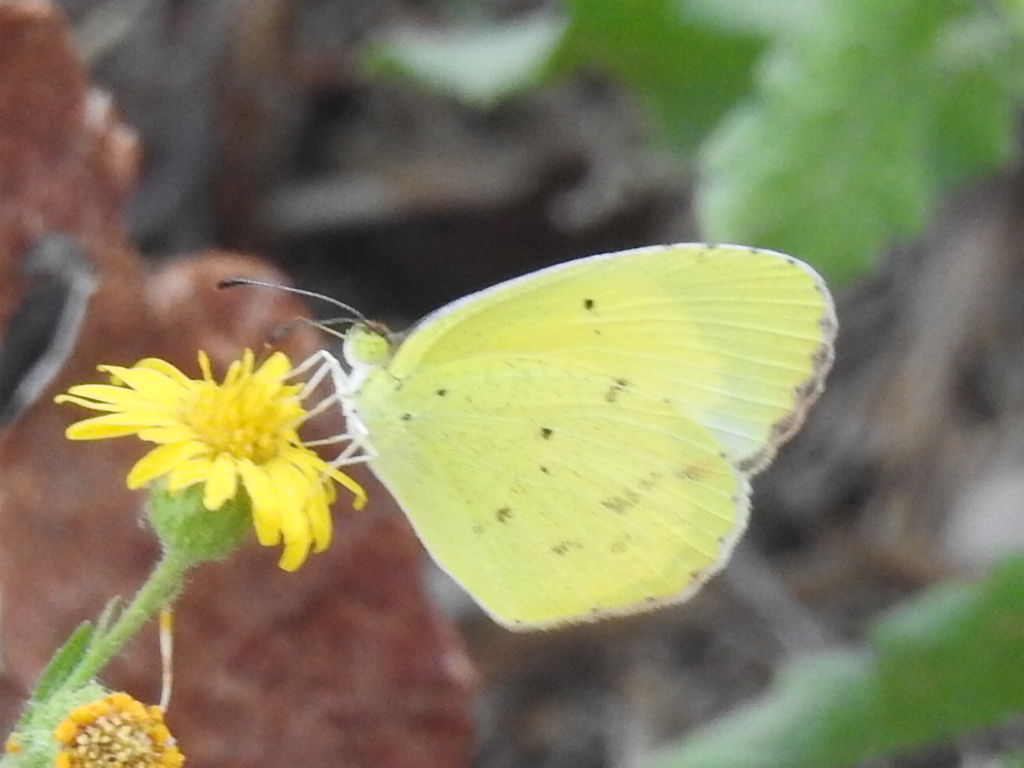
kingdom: Animalia
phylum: Arthropoda
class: Insecta
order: Lepidoptera
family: Pieridae
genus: Pyrisitia
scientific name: Pyrisitia lisa
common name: Little yellow
